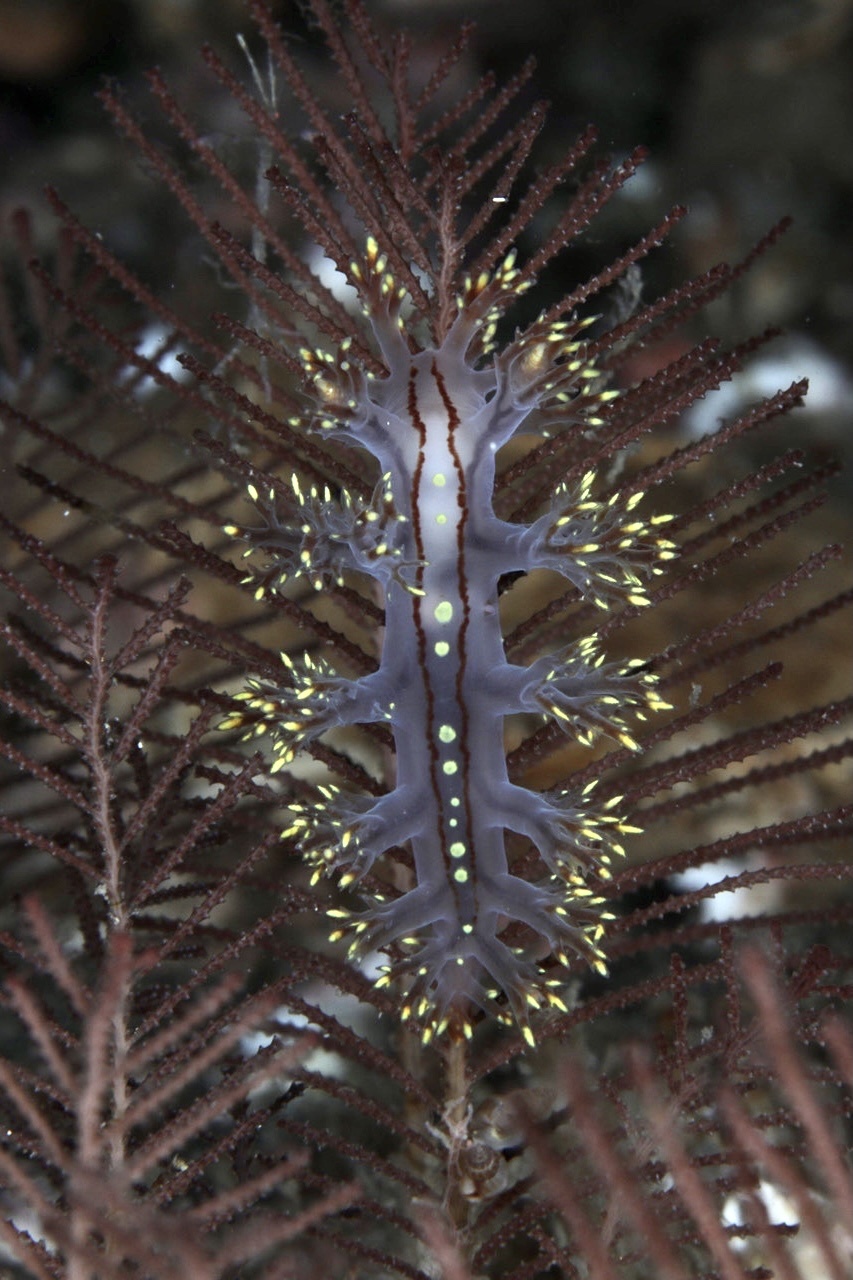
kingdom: Animalia
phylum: Mollusca
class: Gastropoda
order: Nudibranchia
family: Dendronotidae
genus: Dendronotus
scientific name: Dendronotus yrjargul
